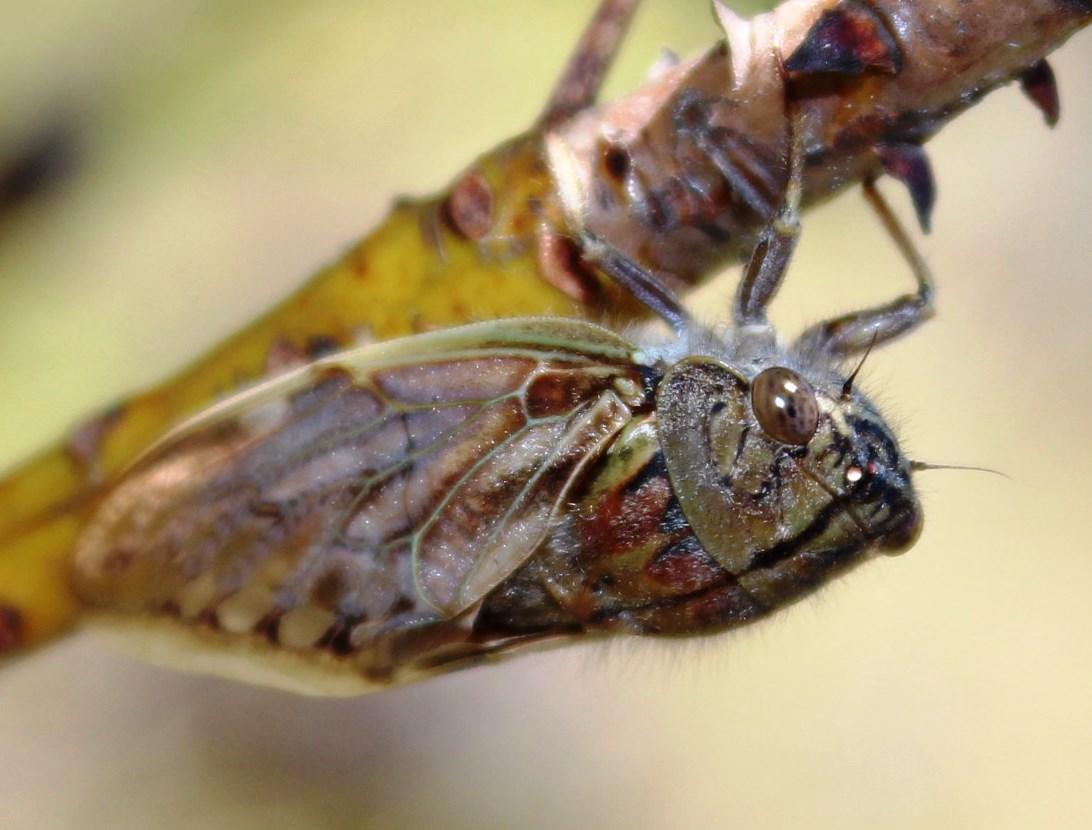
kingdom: Animalia
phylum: Arthropoda
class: Insecta
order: Hemiptera
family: Cicadidae
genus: Platypleura
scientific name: Platypleura capensis
